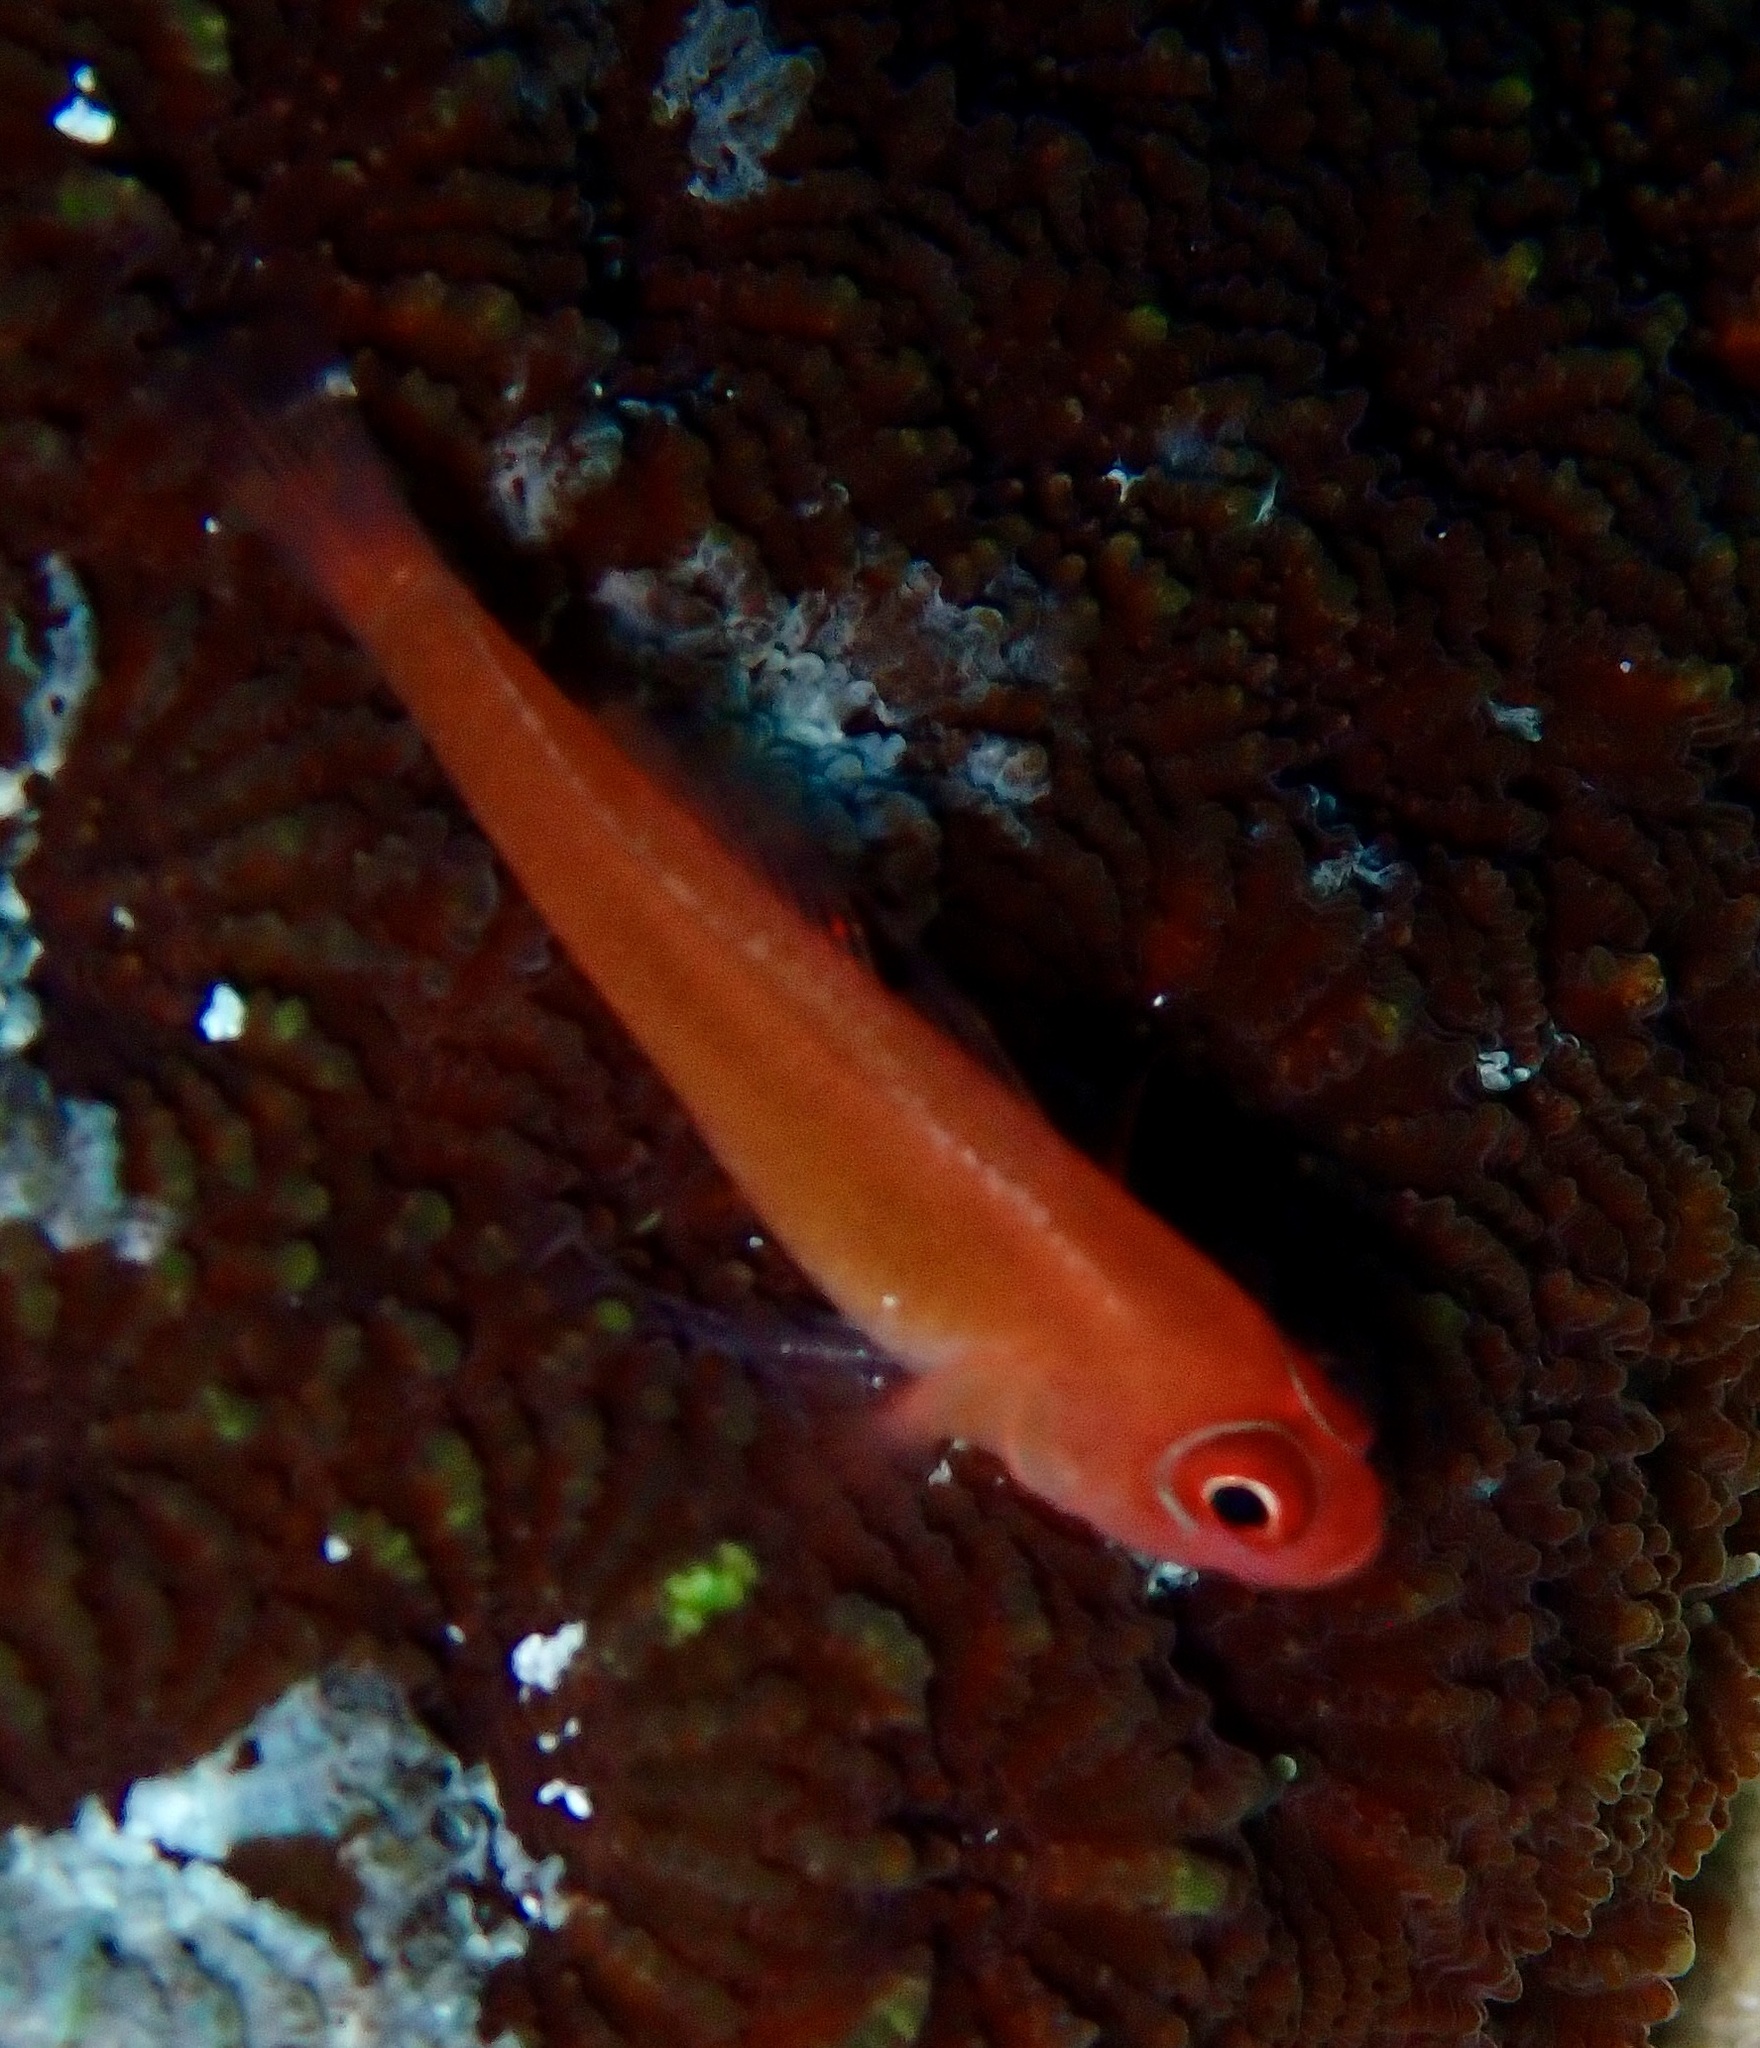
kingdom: Animalia
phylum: Chordata
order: Perciformes
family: Gobiidae
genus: Trimma
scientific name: Trimma benjamini
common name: Redface dwarfgoby
